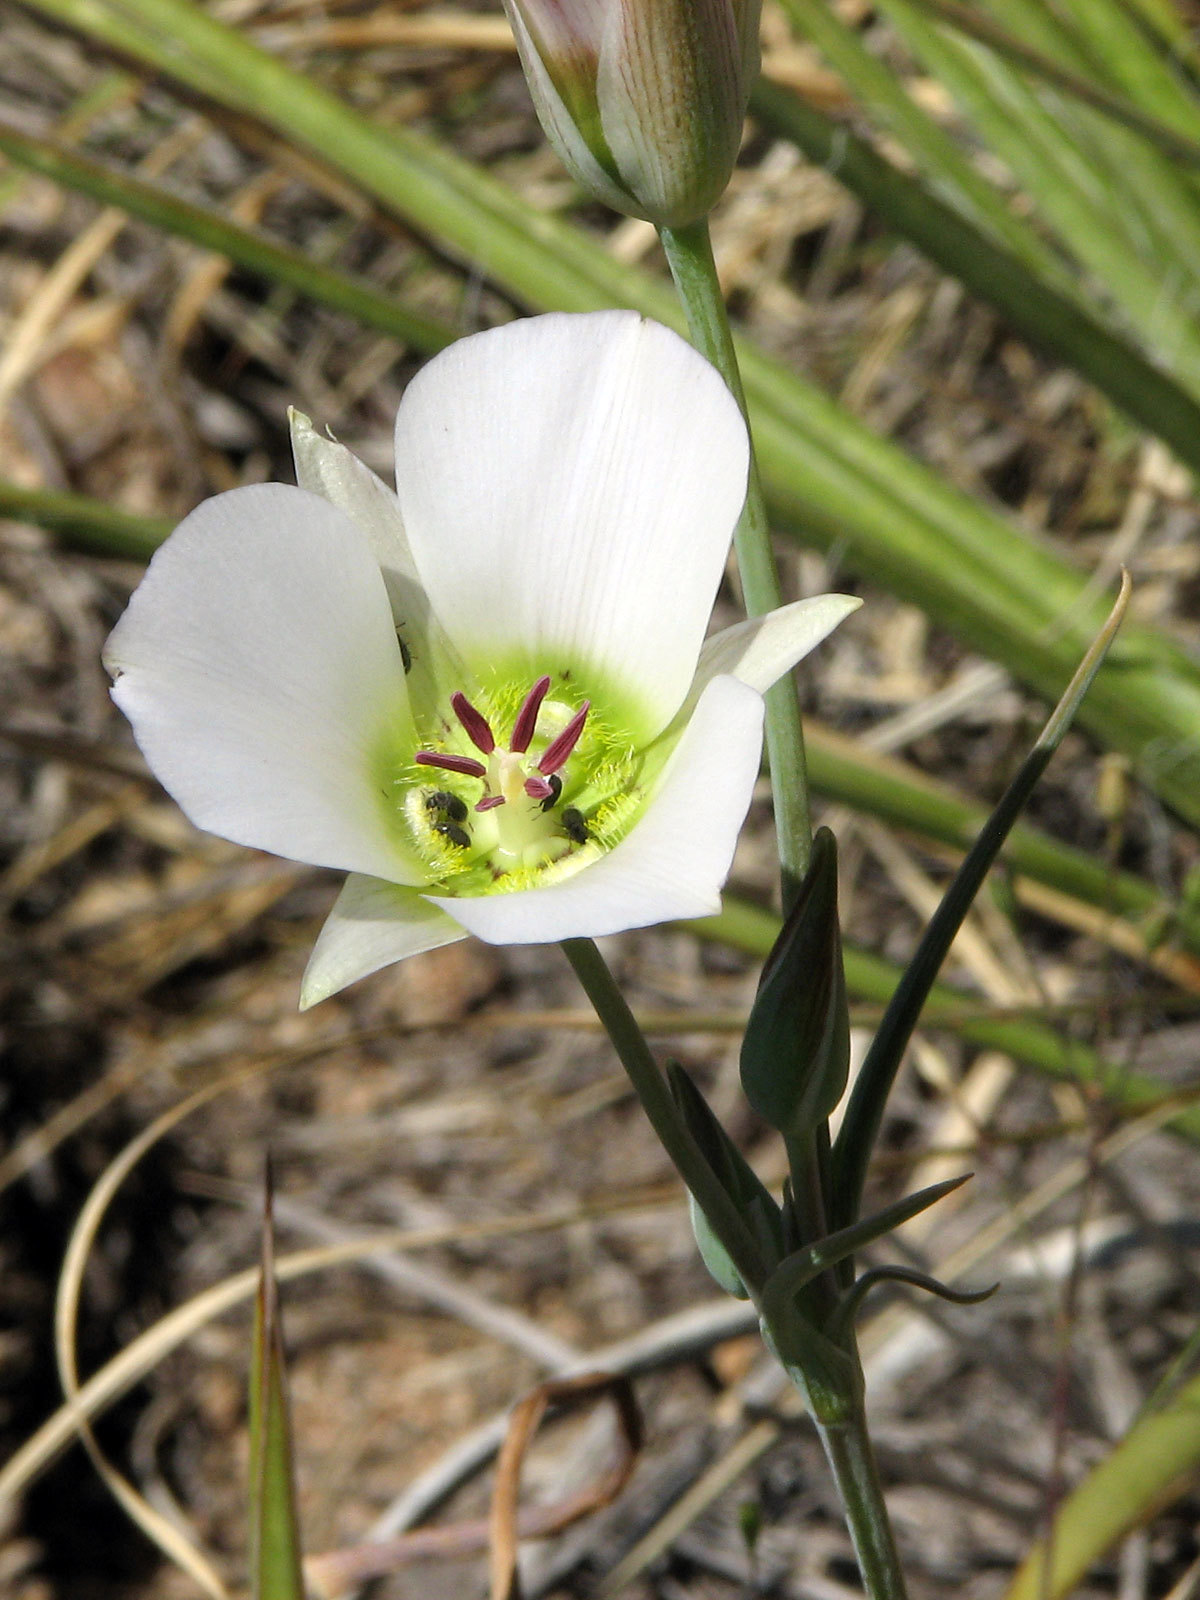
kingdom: Plantae
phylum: Tracheophyta
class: Liliopsida
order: Liliales
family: Liliaceae
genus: Calochortus
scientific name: Calochortus ambiguus
